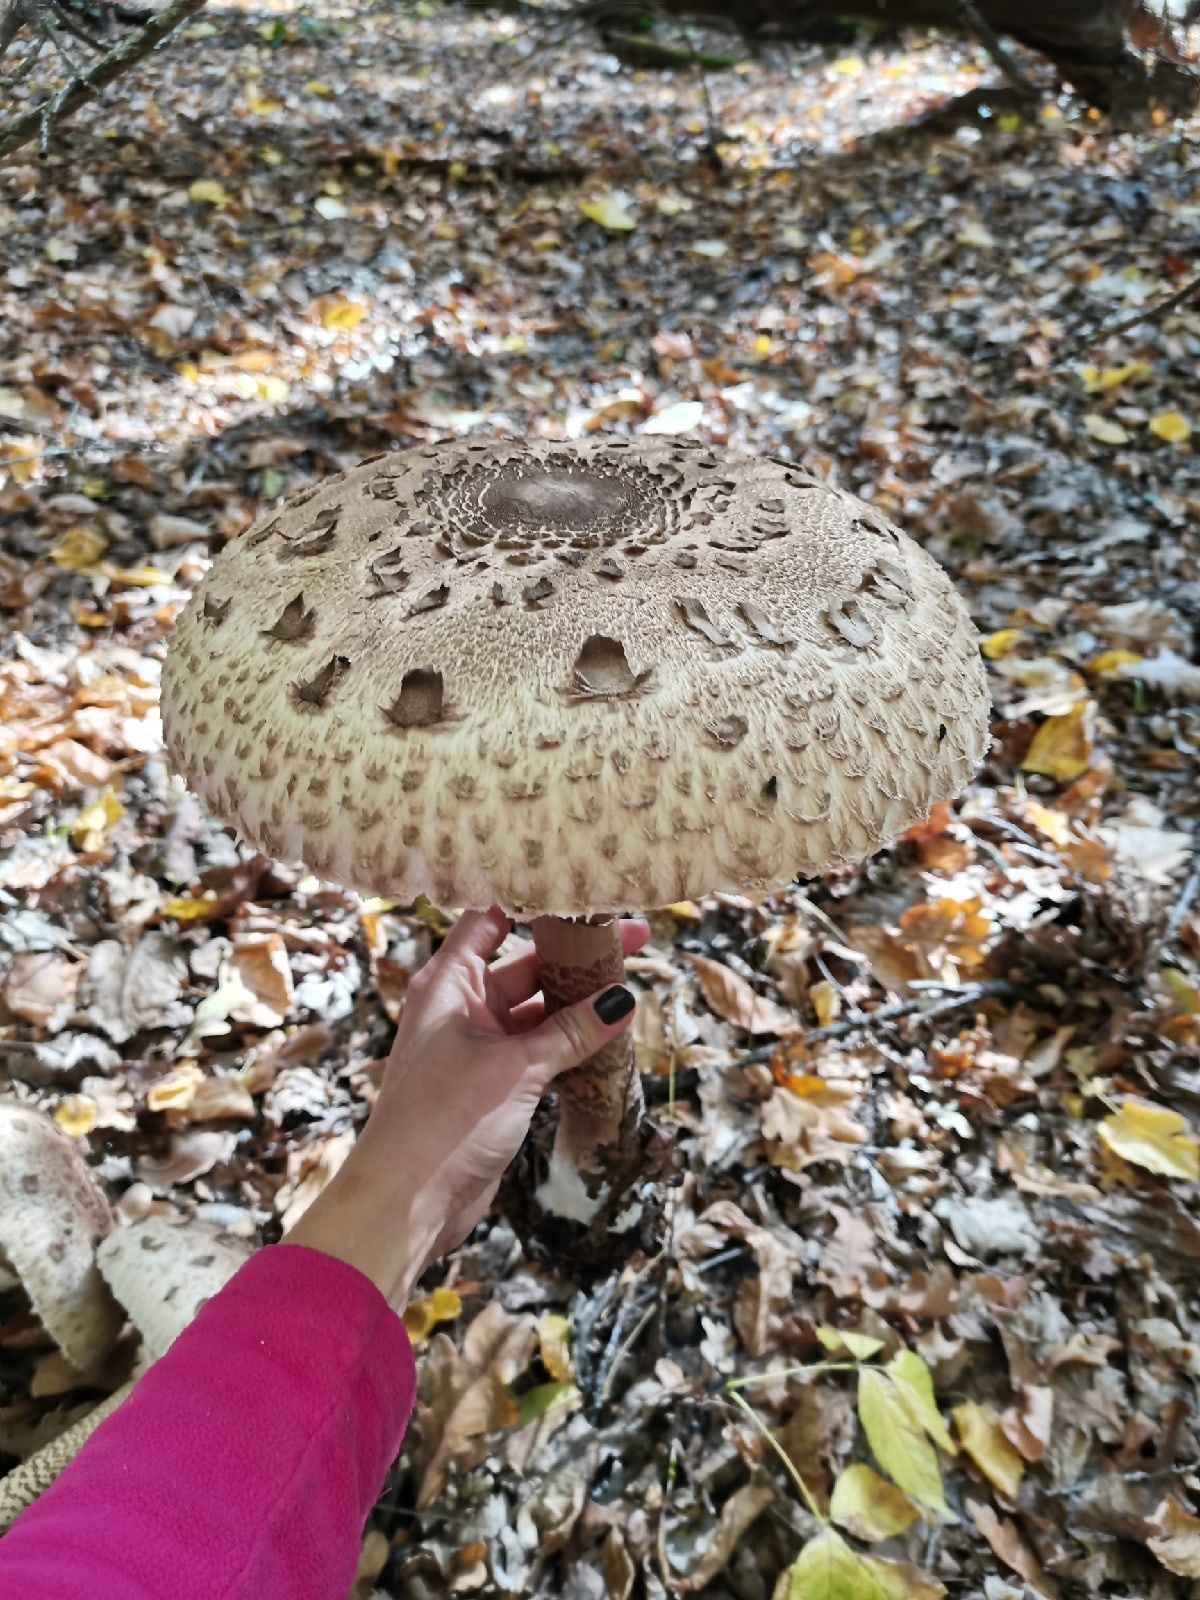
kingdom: Fungi
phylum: Basidiomycota
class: Agaricomycetes
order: Agaricales
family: Agaricaceae
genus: Macrolepiota
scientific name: Macrolepiota procera
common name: Parasol
